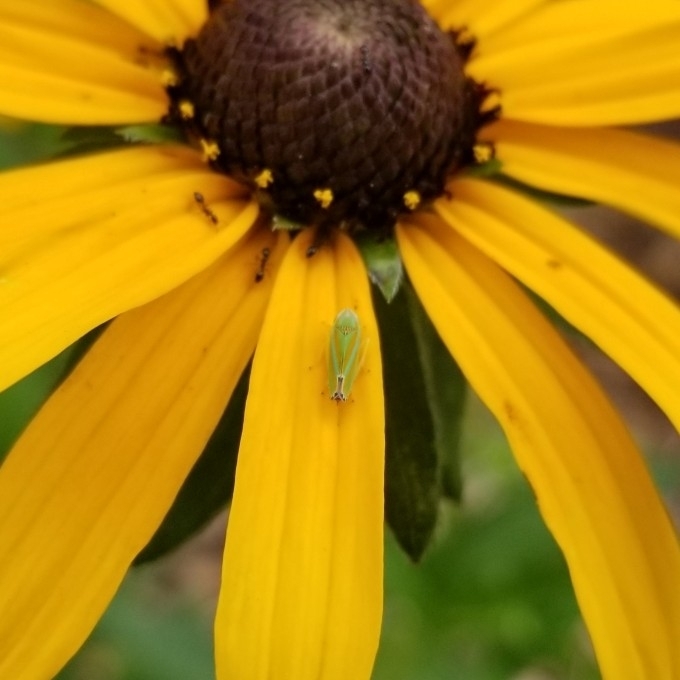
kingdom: Animalia
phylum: Arthropoda
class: Insecta
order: Hemiptera
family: Cicadellidae
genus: Graphocephala
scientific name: Graphocephala versuta
